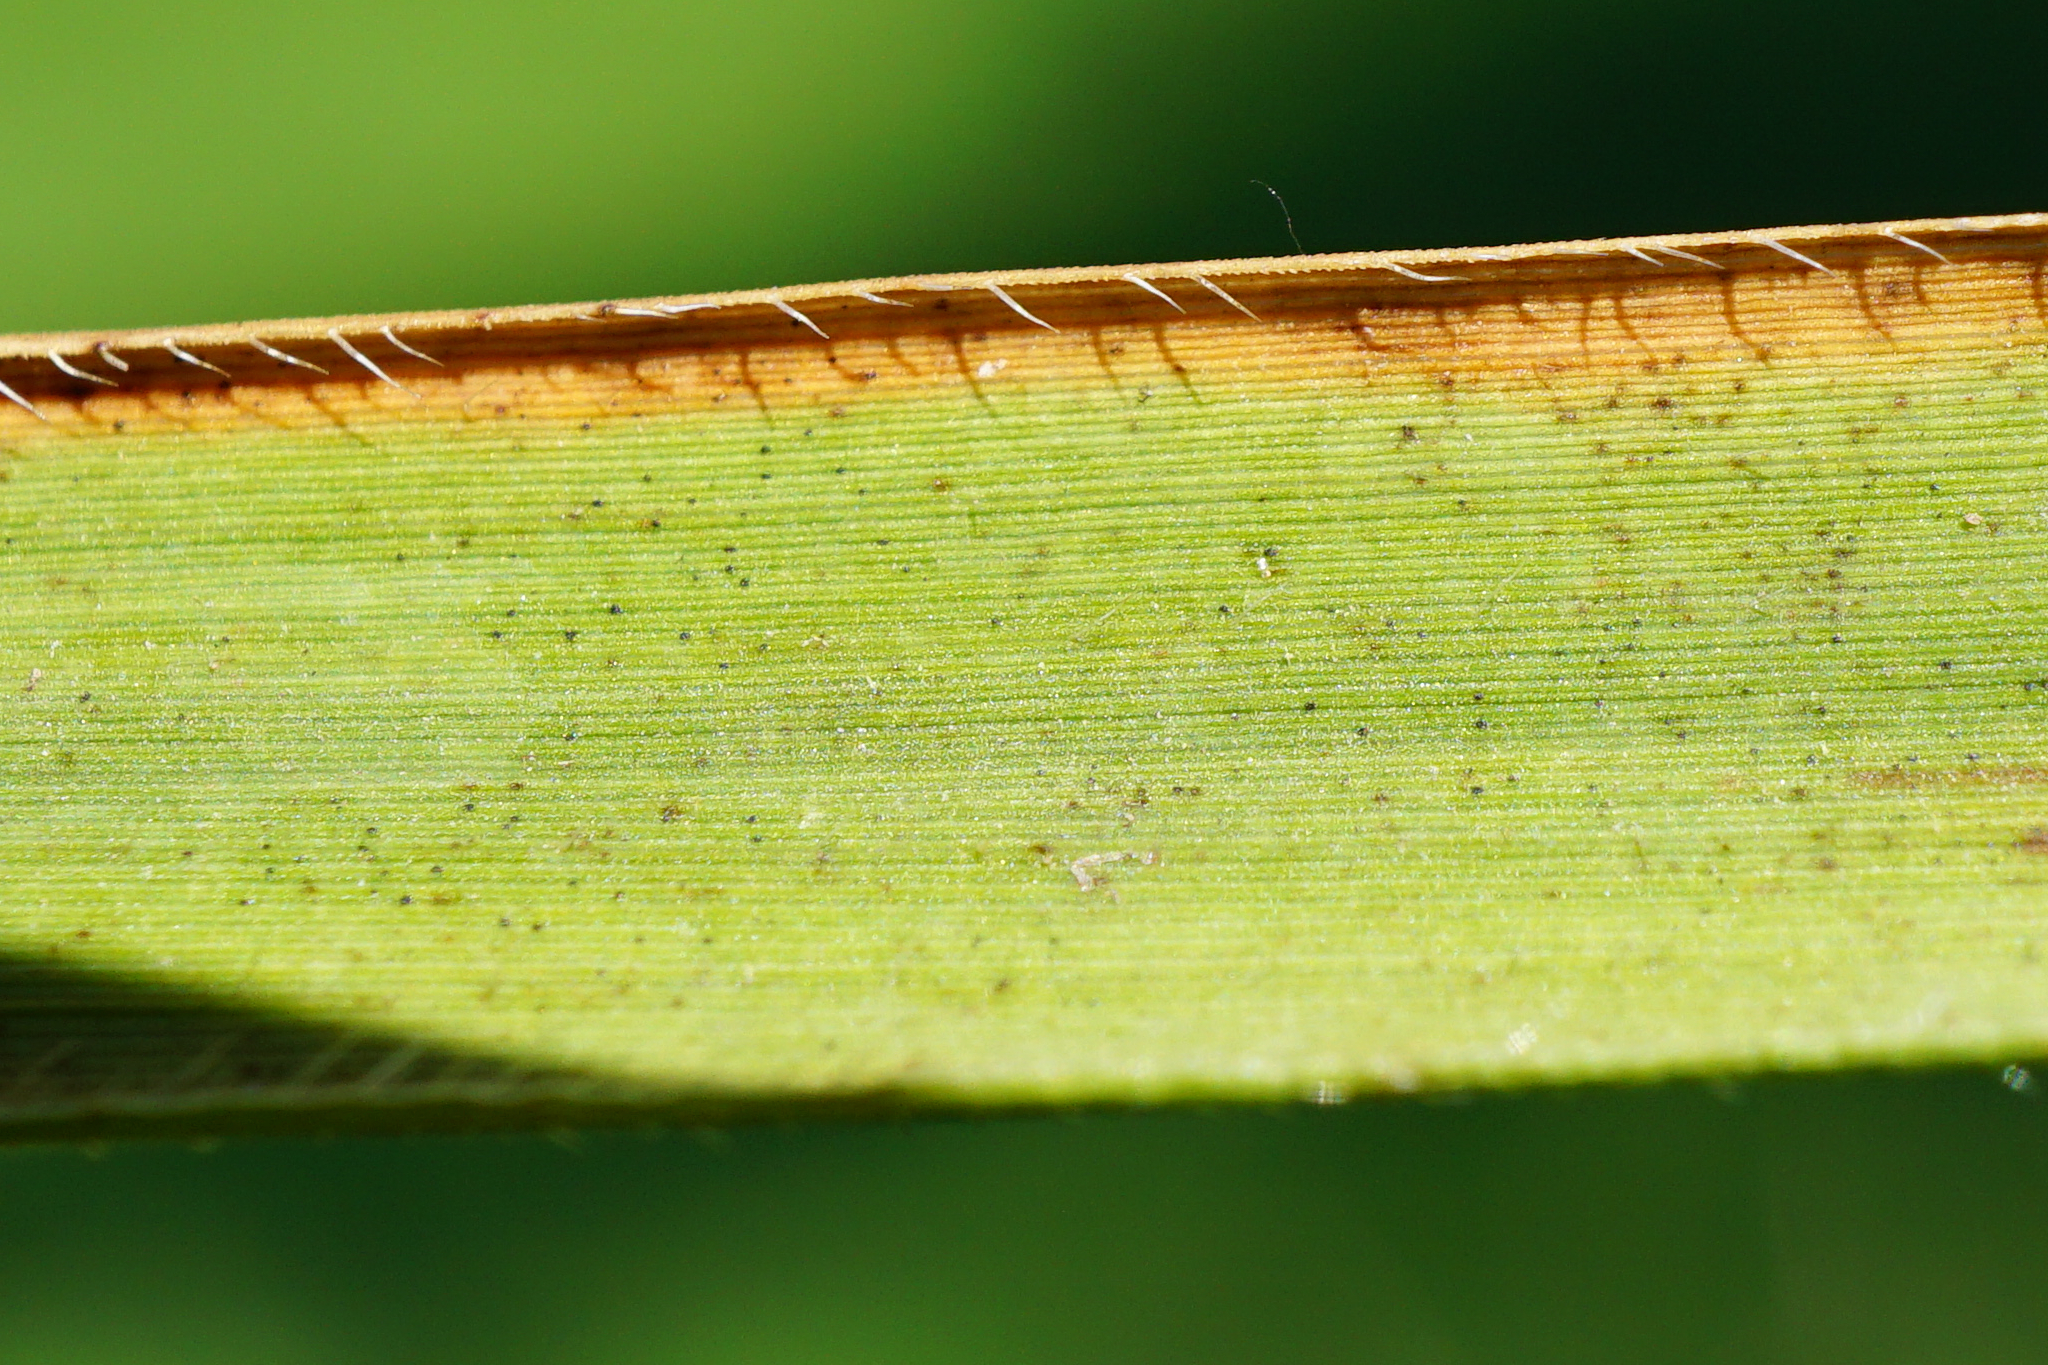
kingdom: Plantae
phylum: Tracheophyta
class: Liliopsida
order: Poales
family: Poaceae
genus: Brachypodium
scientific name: Brachypodium pinnatum
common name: Tor grass
